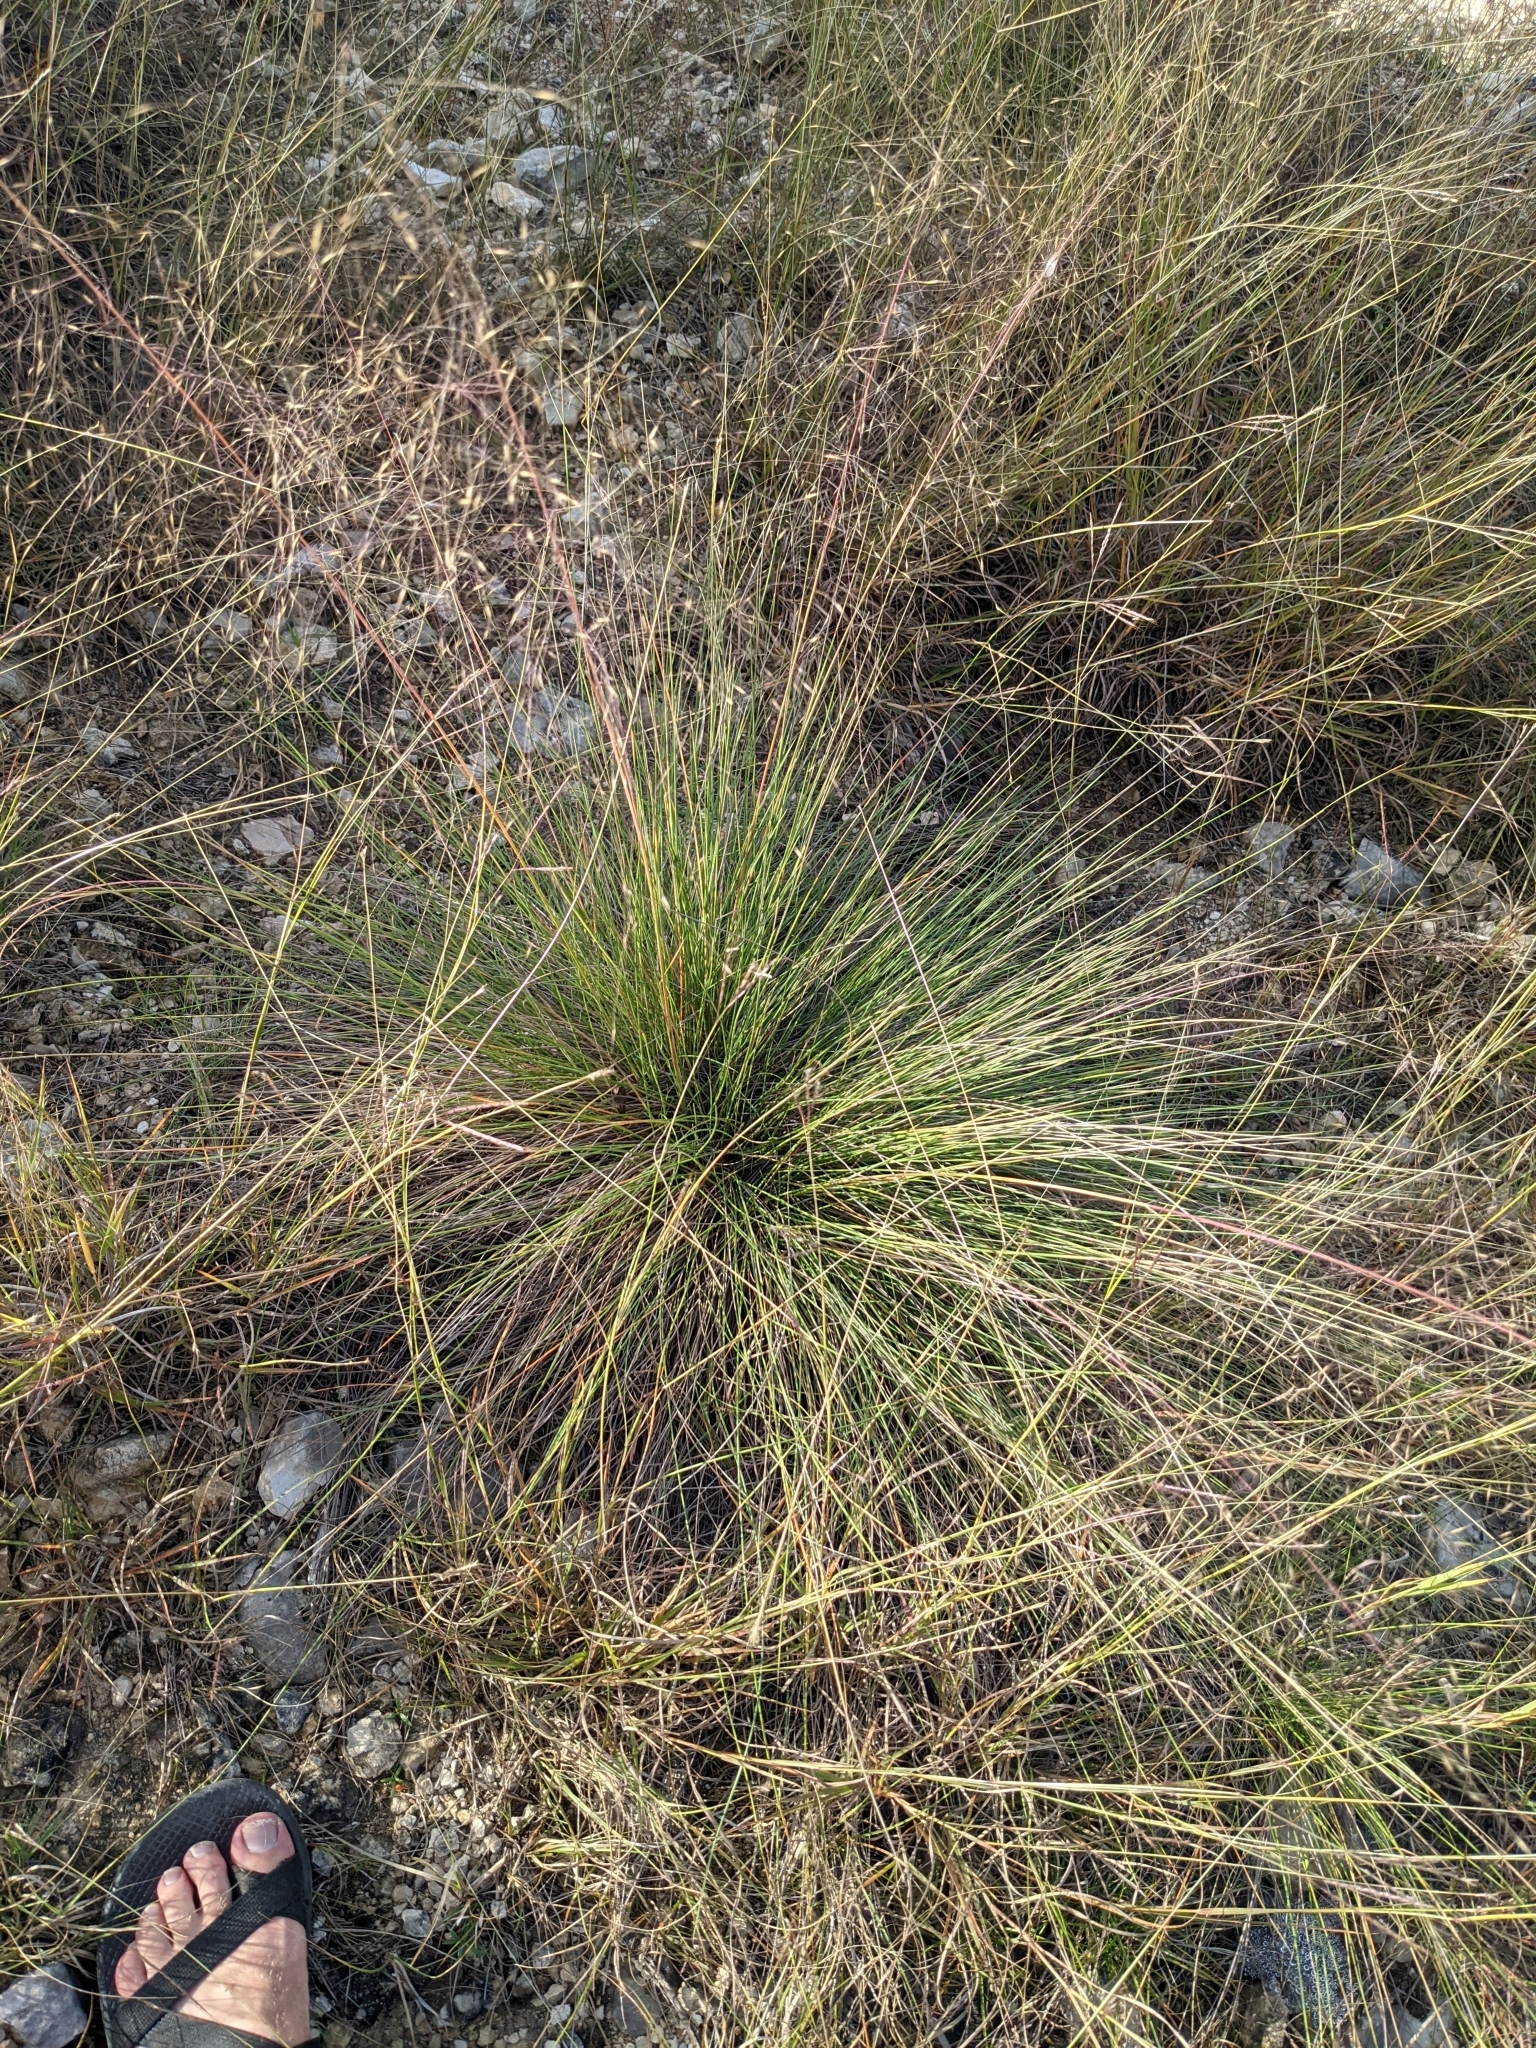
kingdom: Plantae
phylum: Tracheophyta
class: Liliopsida
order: Poales
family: Poaceae
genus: Muhlenbergia
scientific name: Muhlenbergia capillaris
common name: Purple grass
